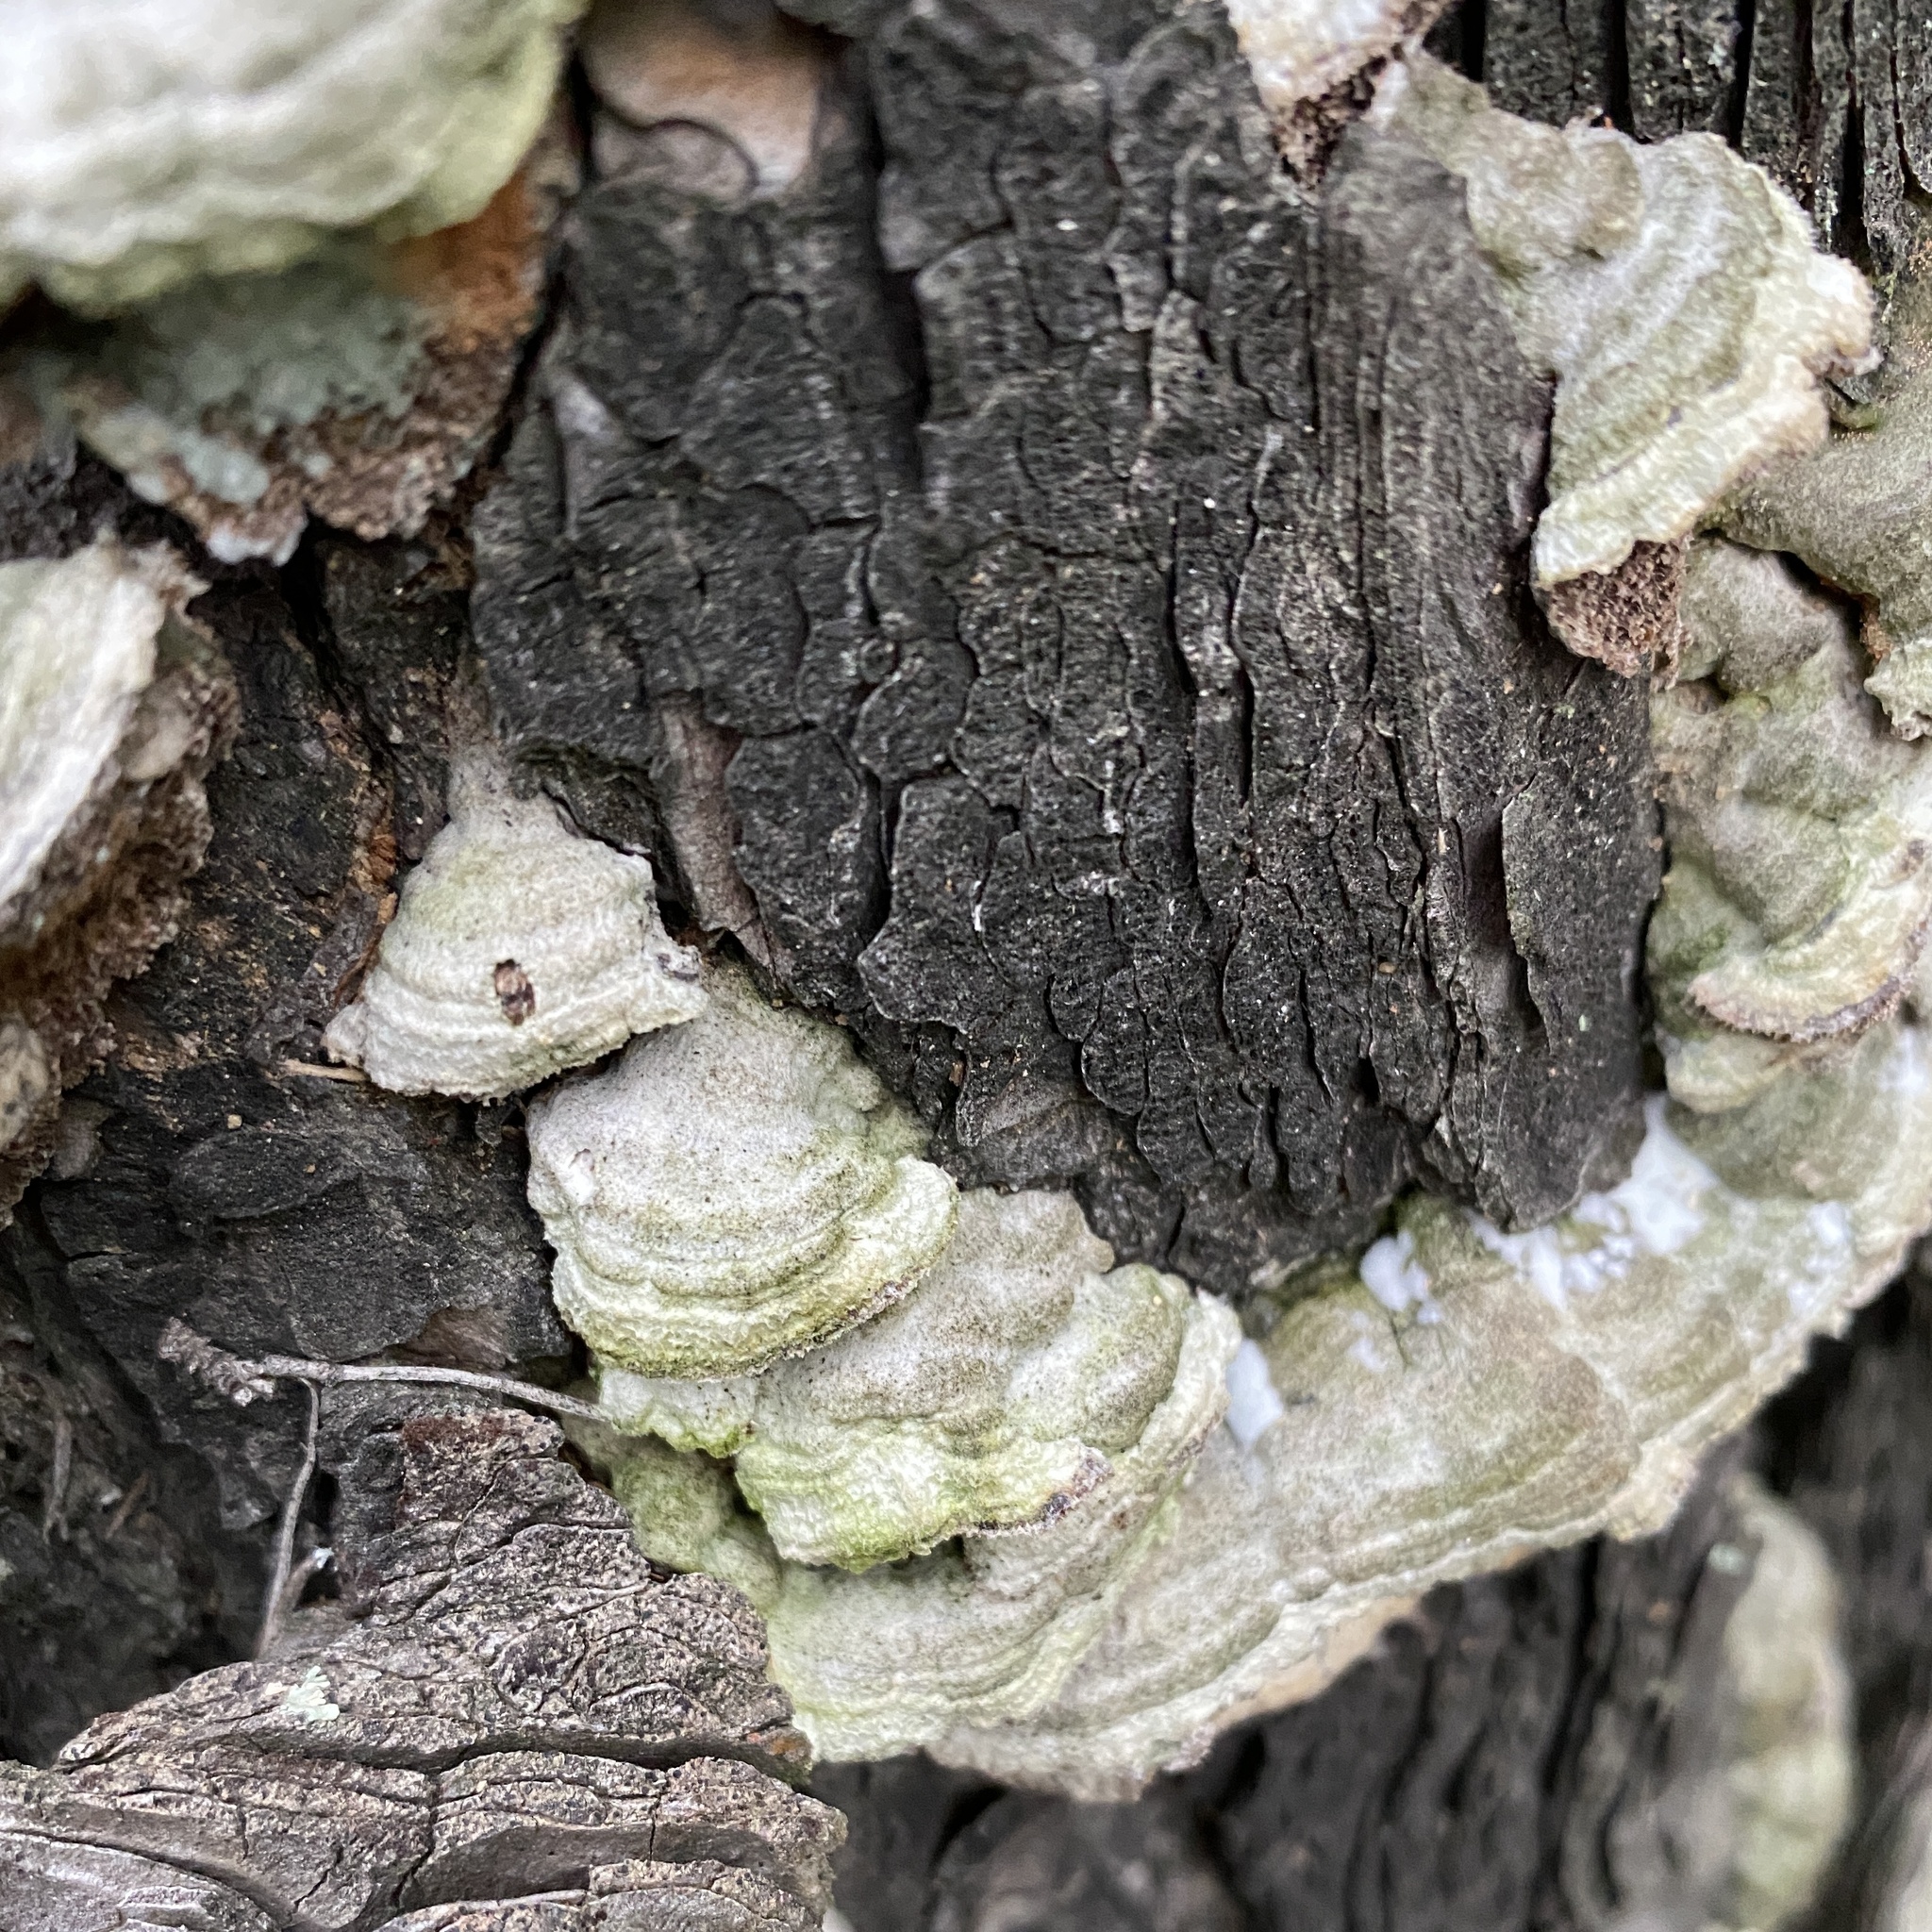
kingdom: Fungi
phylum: Basidiomycota
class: Agaricomycetes
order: Hymenochaetales
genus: Trichaptum
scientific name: Trichaptum fuscoviolaceum
